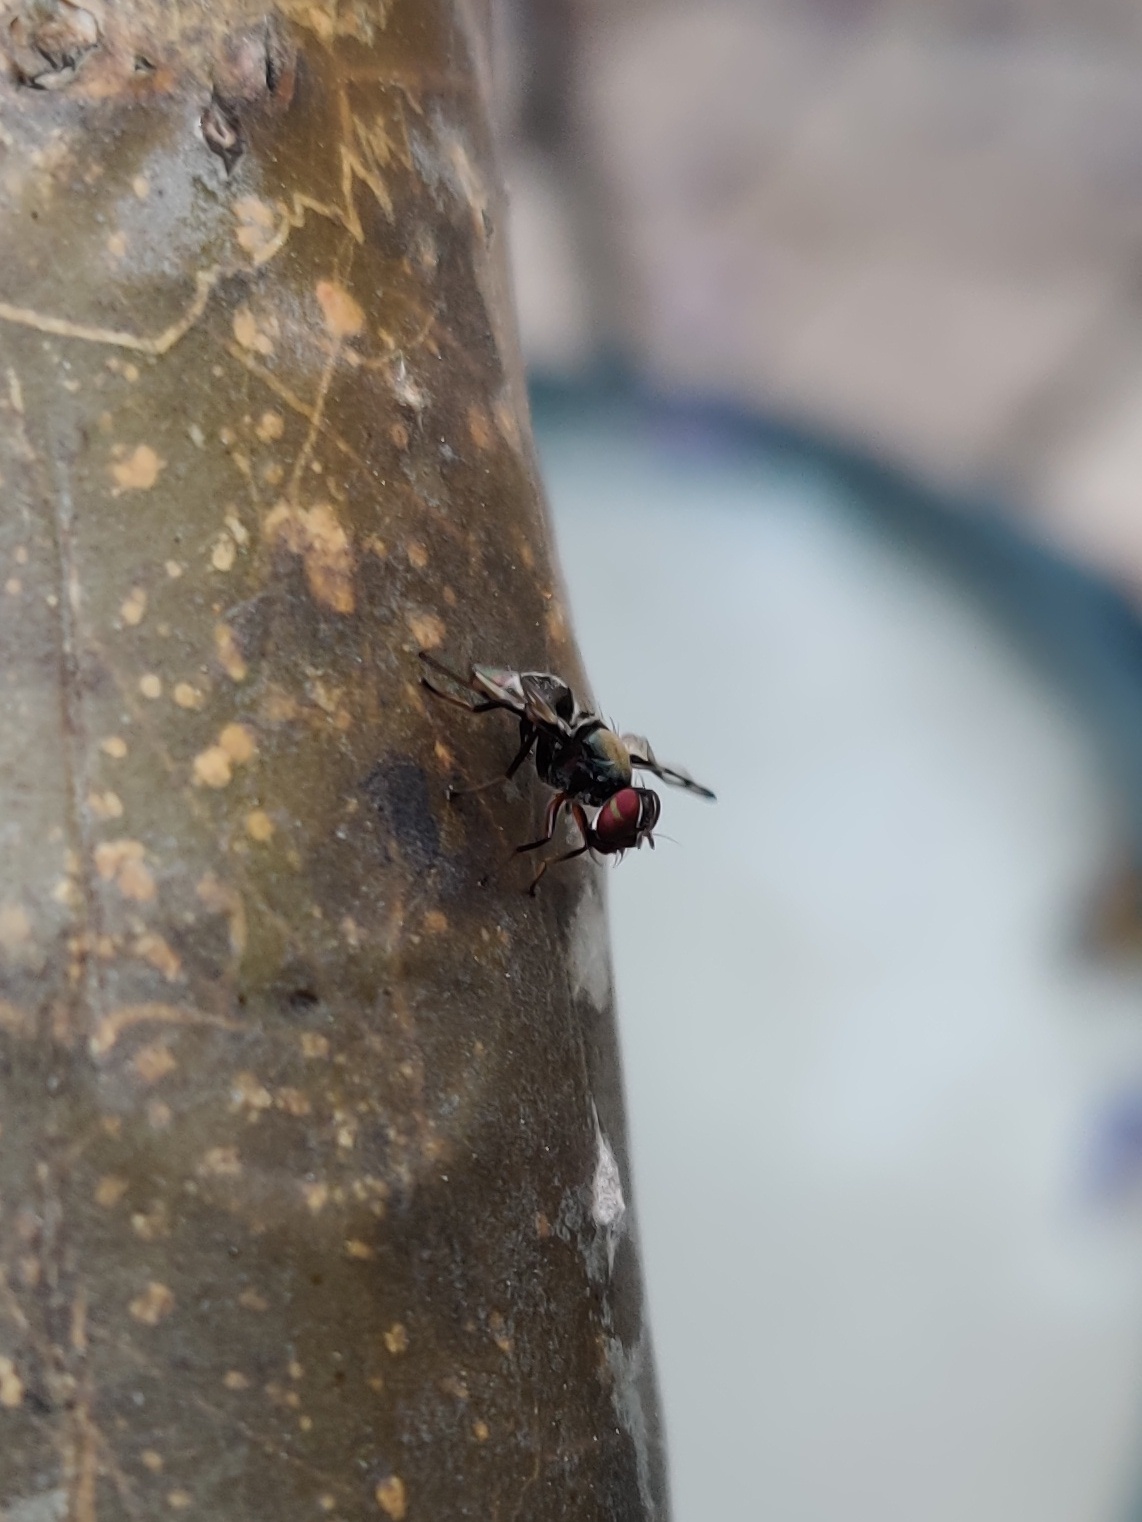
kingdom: Animalia
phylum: Arthropoda
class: Insecta
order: Diptera
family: Platystomatidae
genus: Pogonortalis
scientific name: Pogonortalis doclea
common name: Boatman fly
